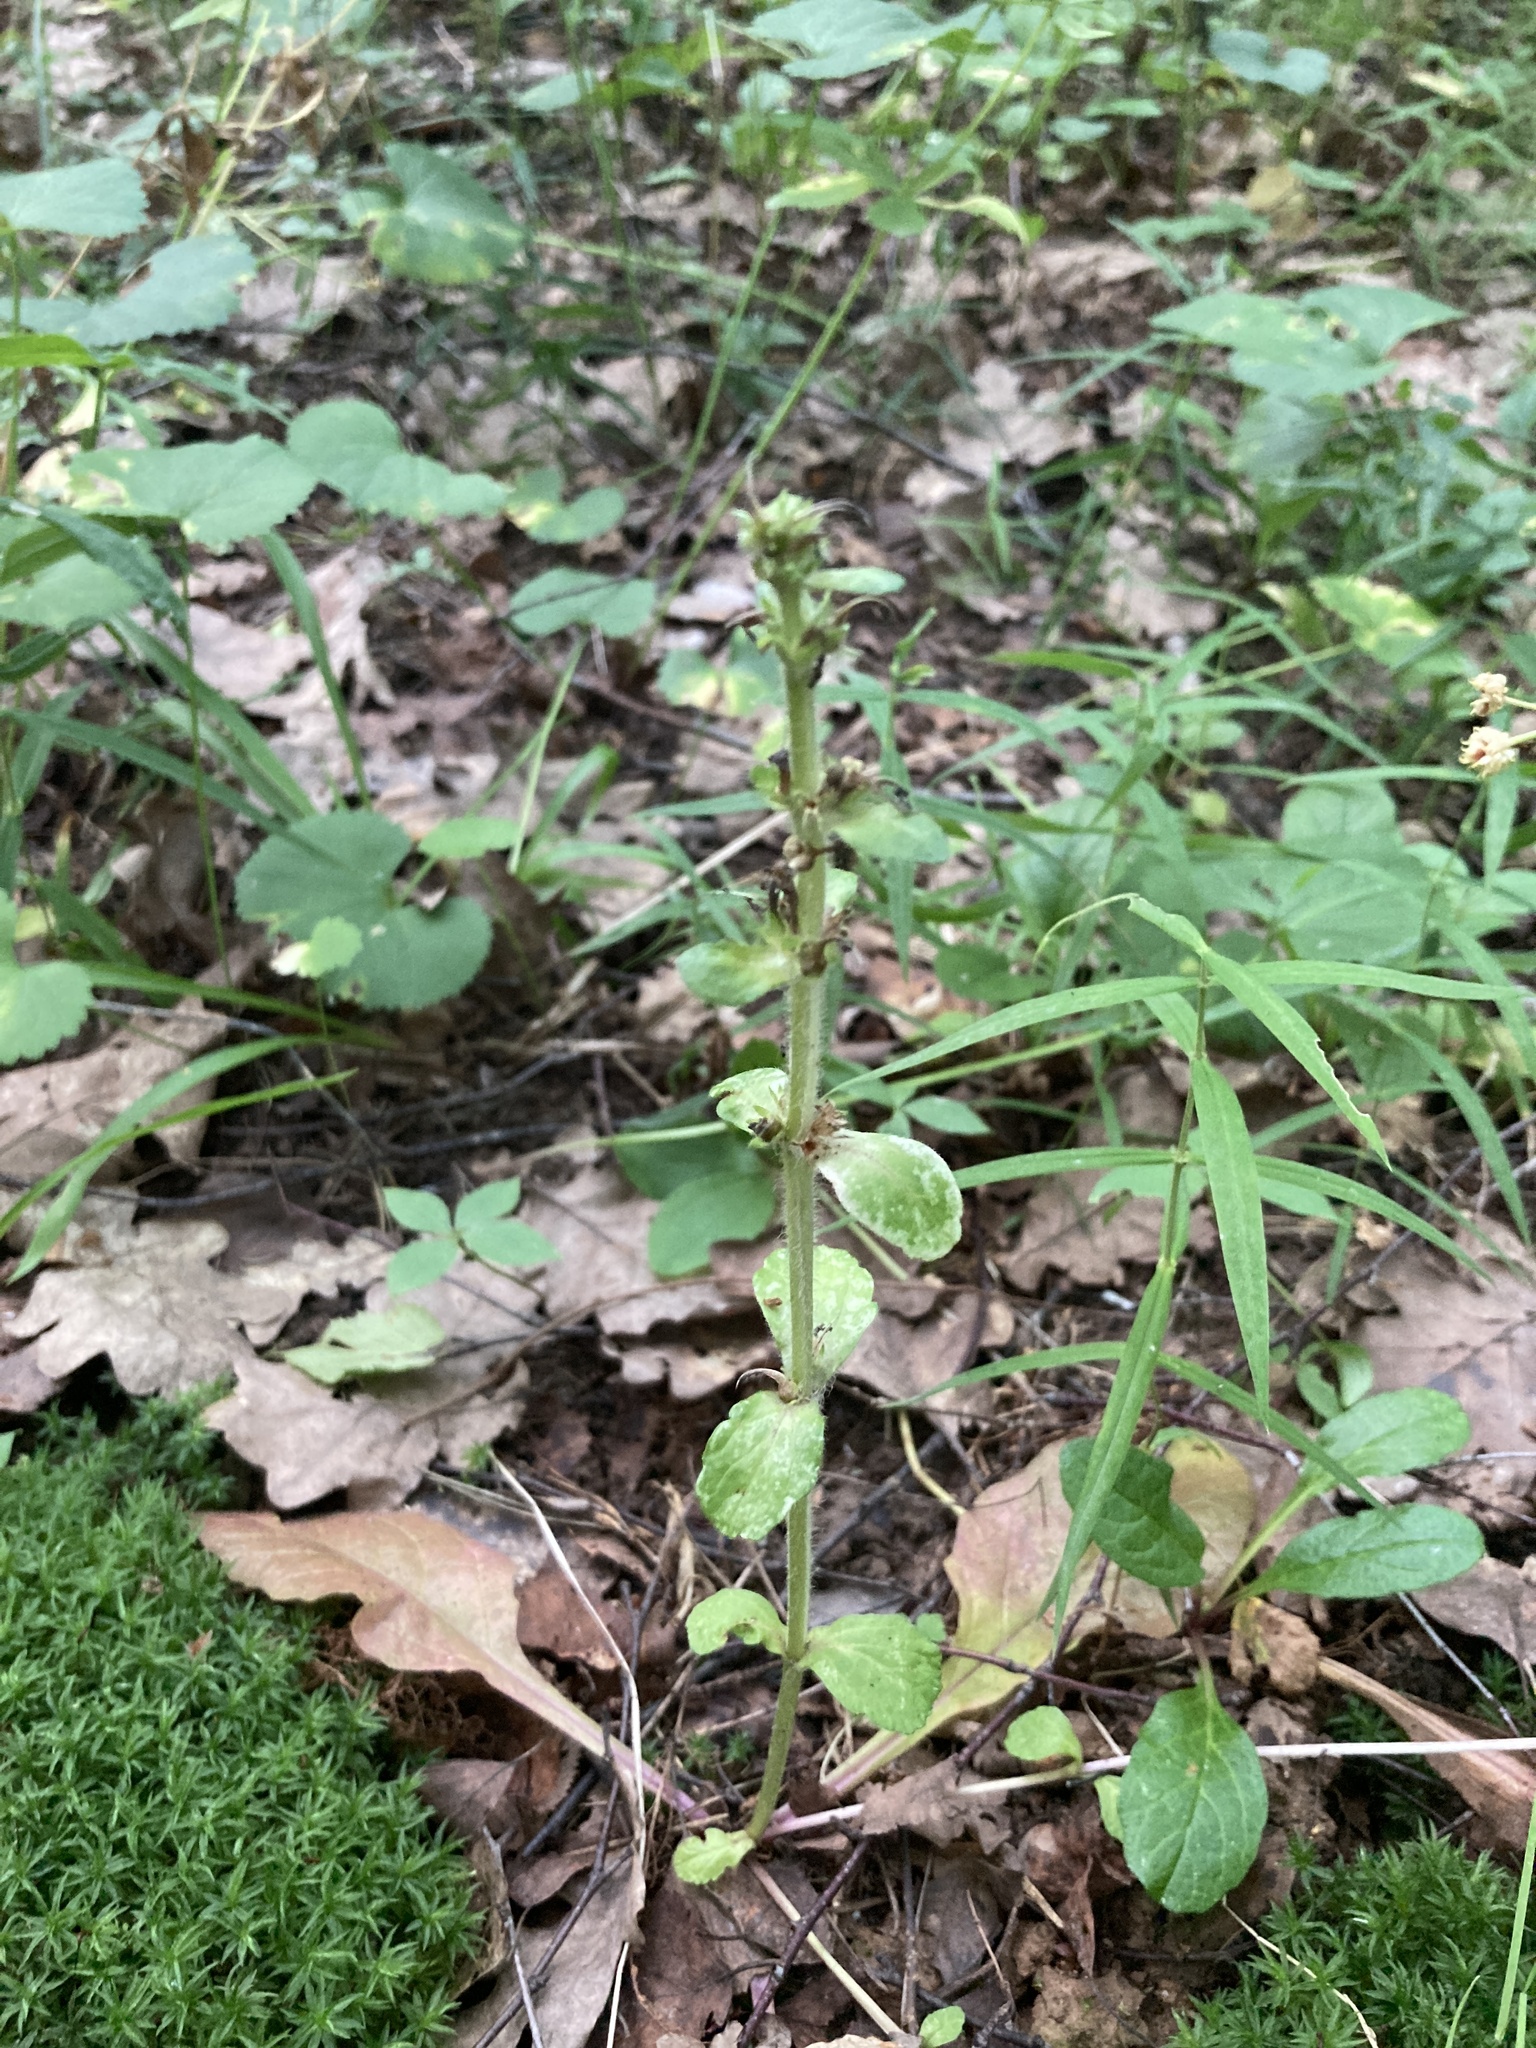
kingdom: Plantae
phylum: Tracheophyta
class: Magnoliopsida
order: Lamiales
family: Lamiaceae
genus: Ajuga
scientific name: Ajuga reptans
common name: Bugle
